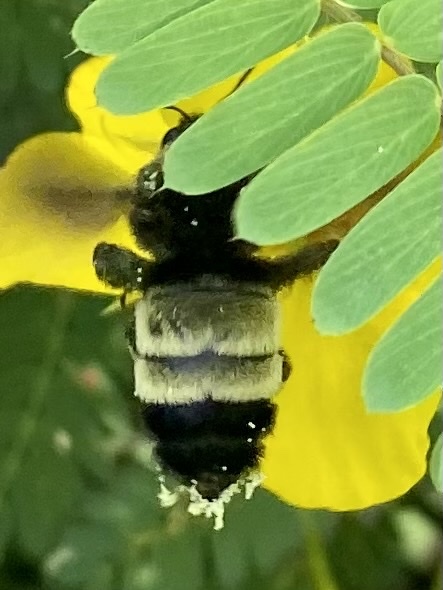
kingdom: Animalia
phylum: Arthropoda
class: Insecta
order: Hymenoptera
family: Apidae
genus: Bombus
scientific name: Bombus pensylvanicus
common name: Bumble bee
